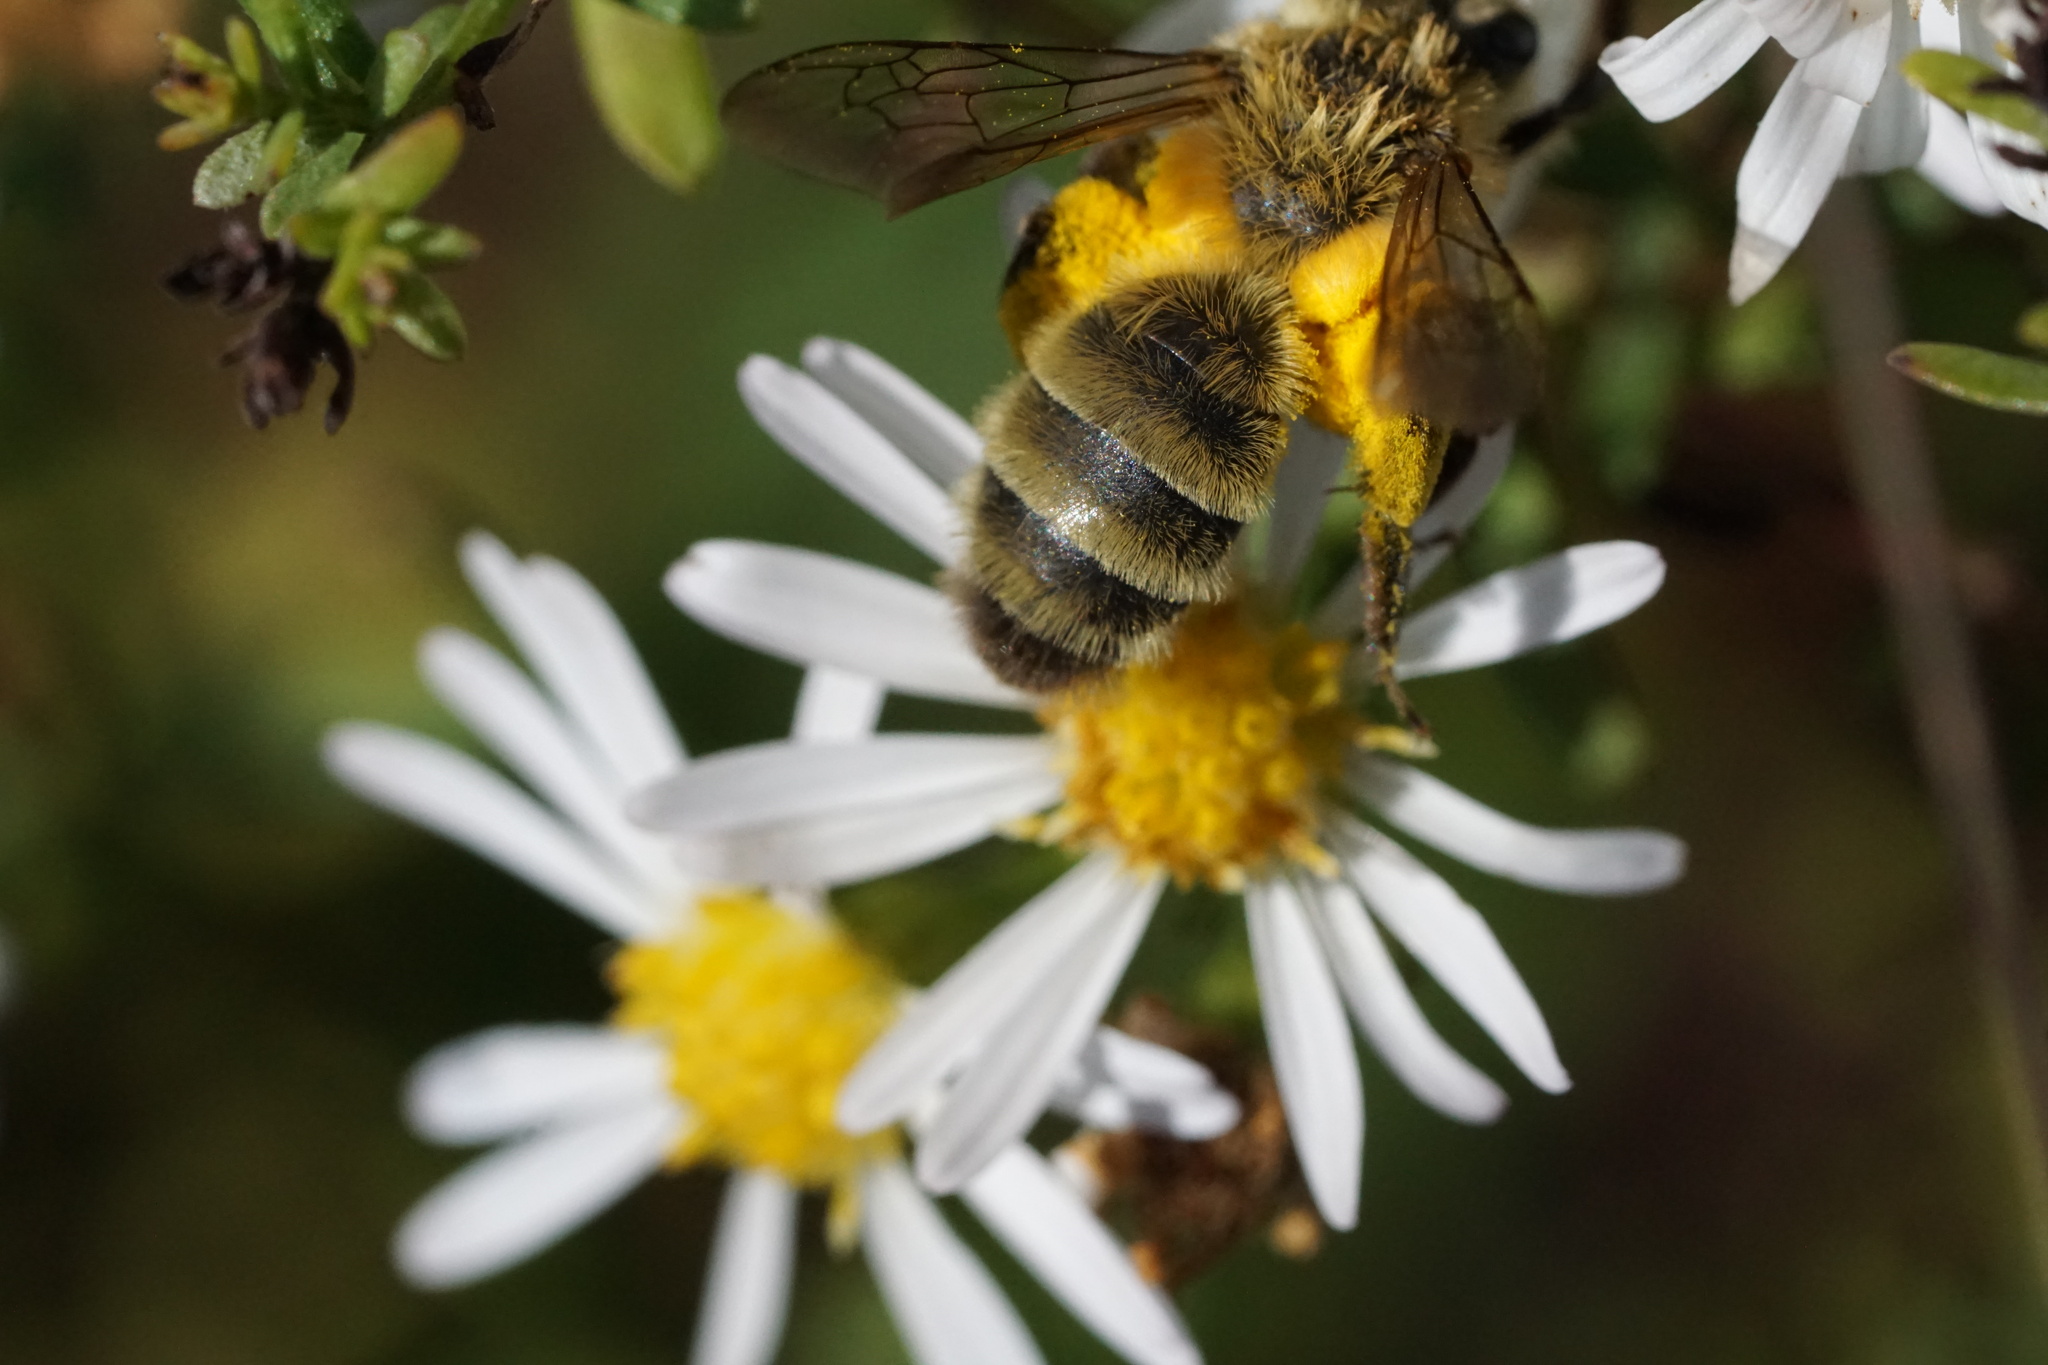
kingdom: Animalia
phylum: Arthropoda
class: Insecta
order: Hymenoptera
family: Andrenidae
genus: Andrena
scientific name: Andrena hirticincta
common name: Hairy-banded mining bee
